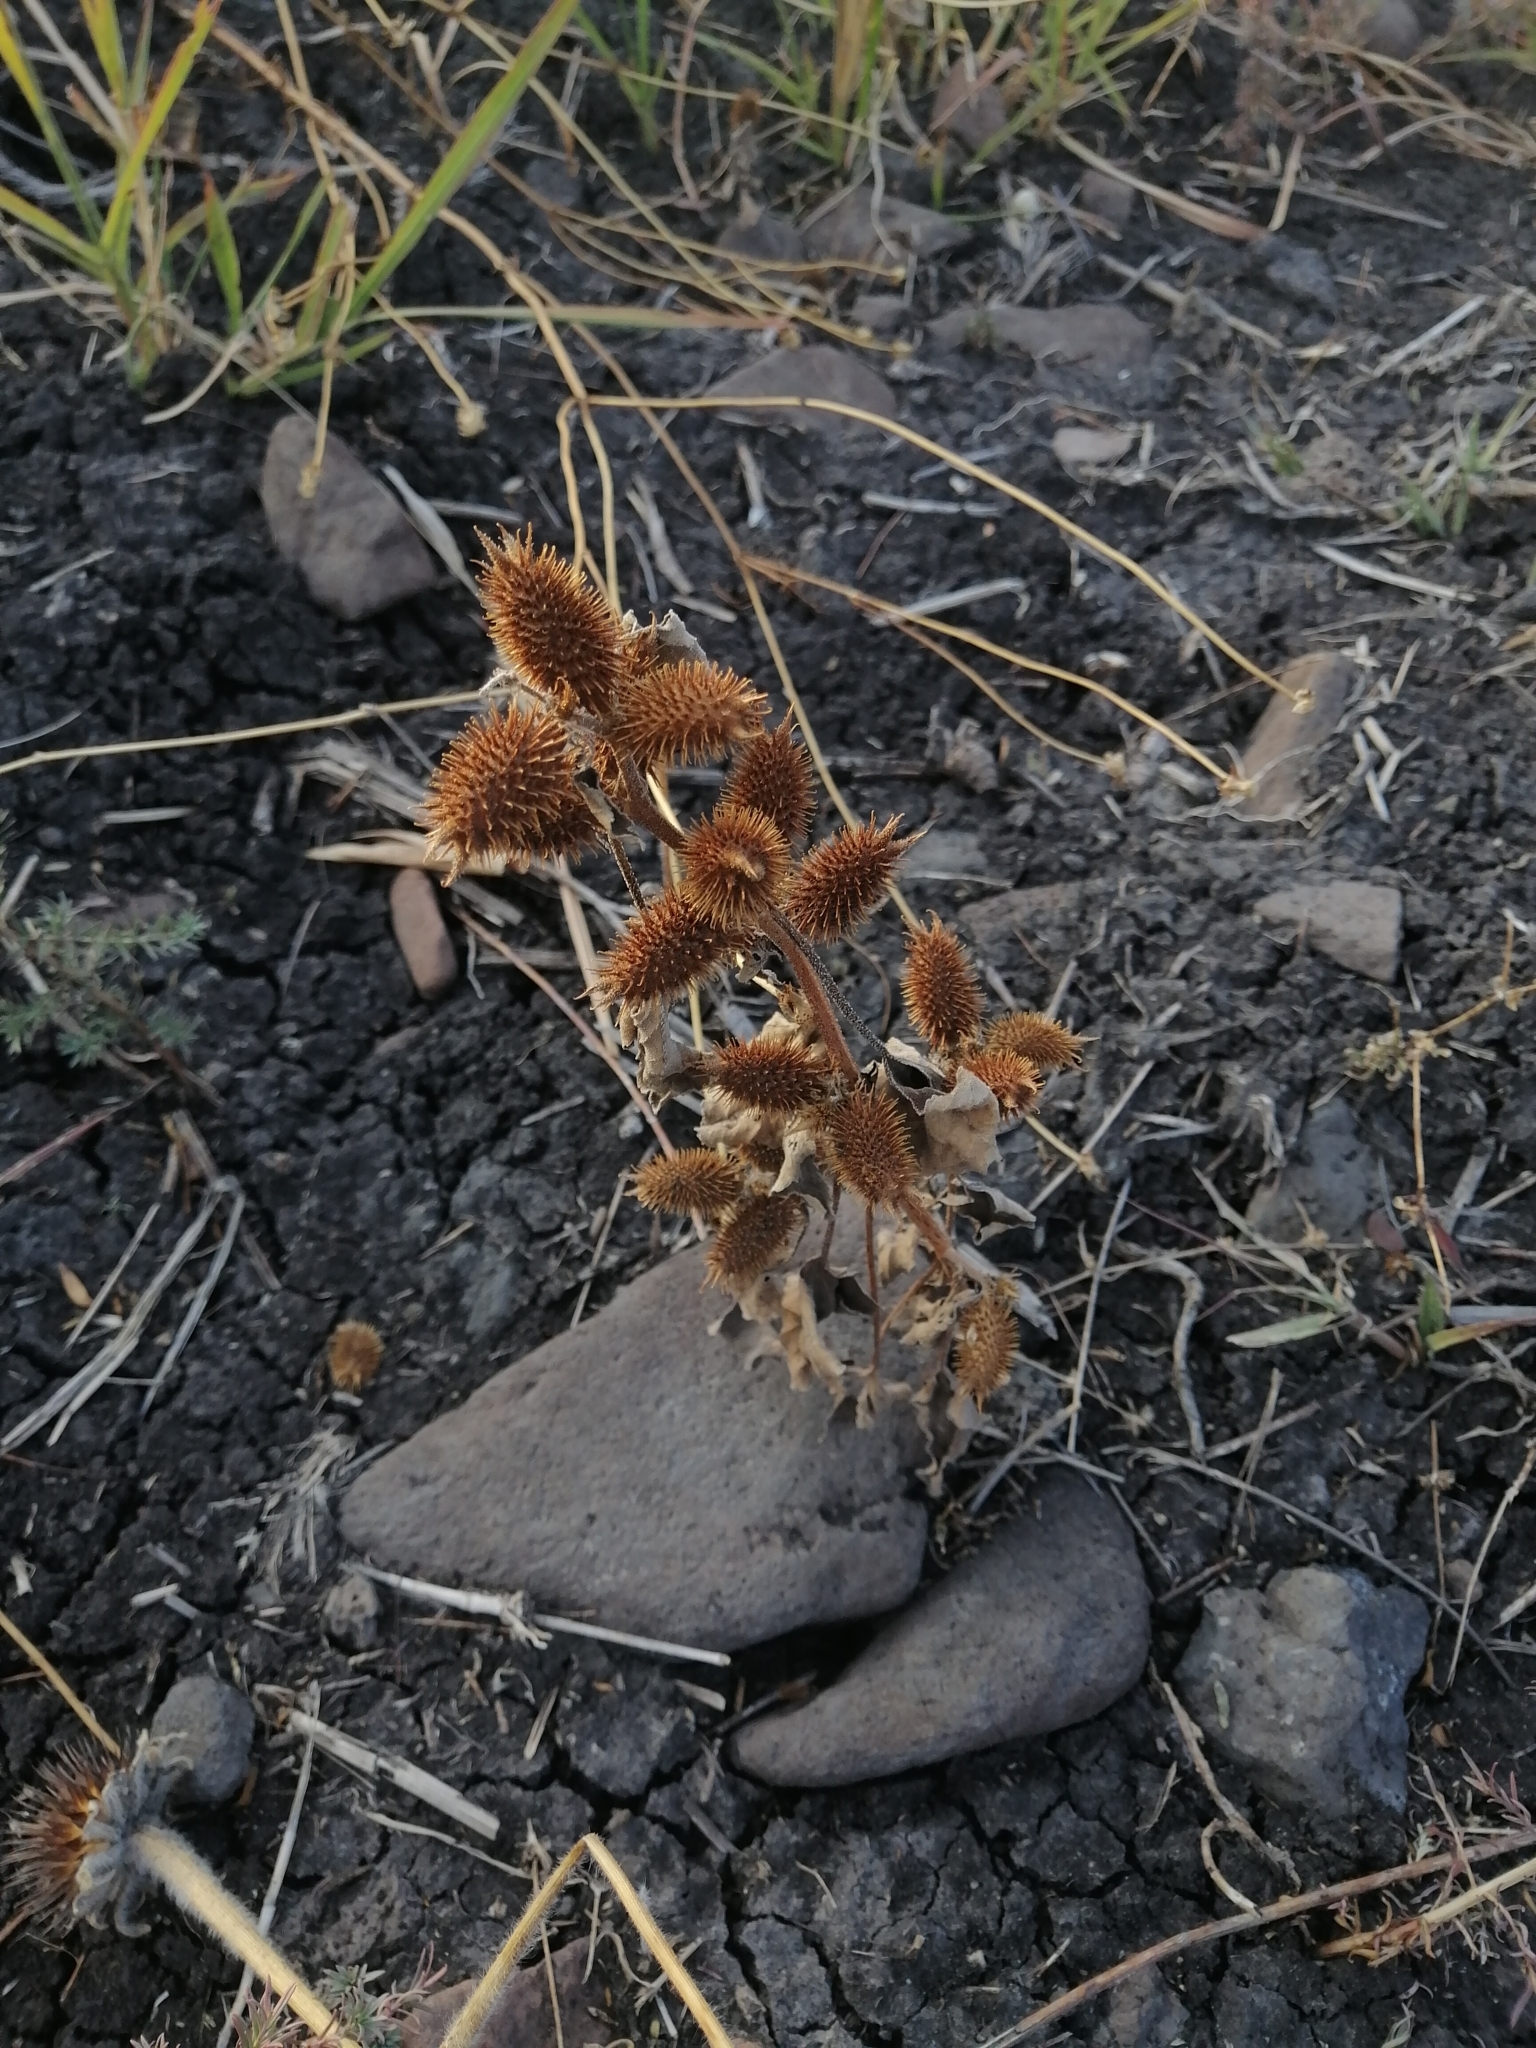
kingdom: Plantae
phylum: Tracheophyta
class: Magnoliopsida
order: Asterales
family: Asteraceae
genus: Xanthium
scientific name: Xanthium strumarium
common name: Rough cocklebur
